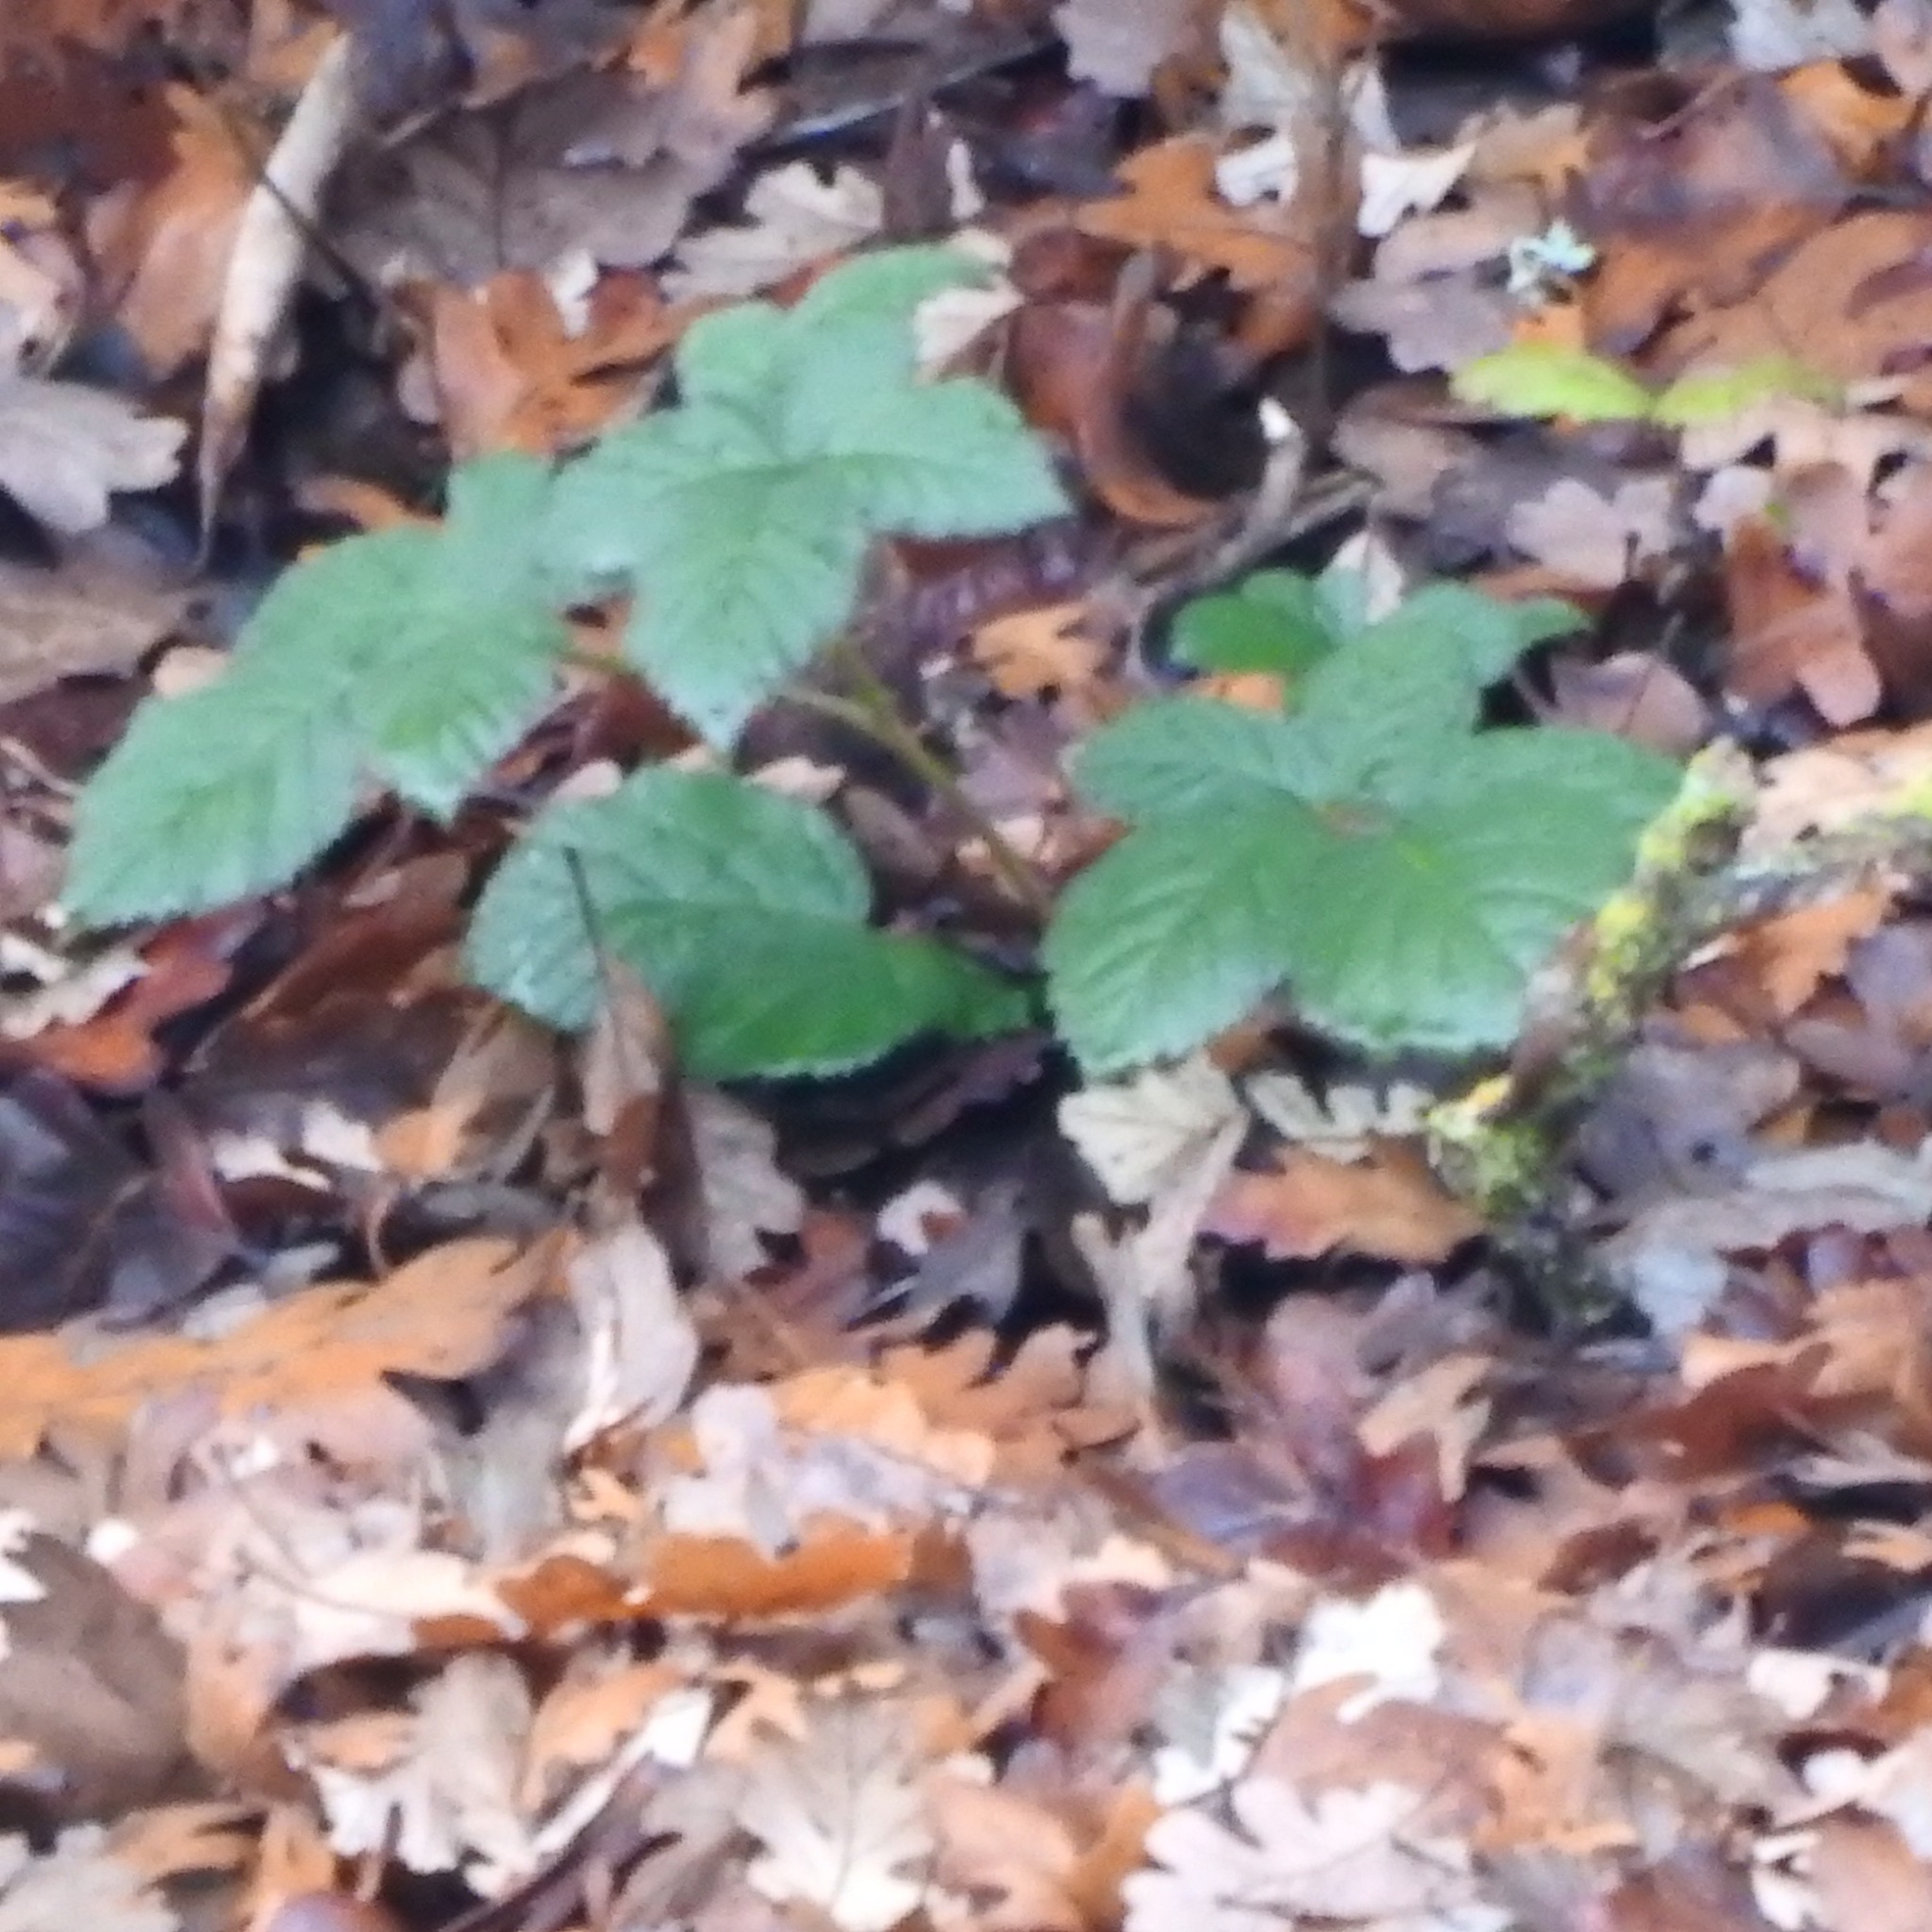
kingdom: Plantae
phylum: Tracheophyta
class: Magnoliopsida
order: Rosales
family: Rosaceae
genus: Rubus
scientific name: Rubus armeniacus
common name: Himalayan blackberry
